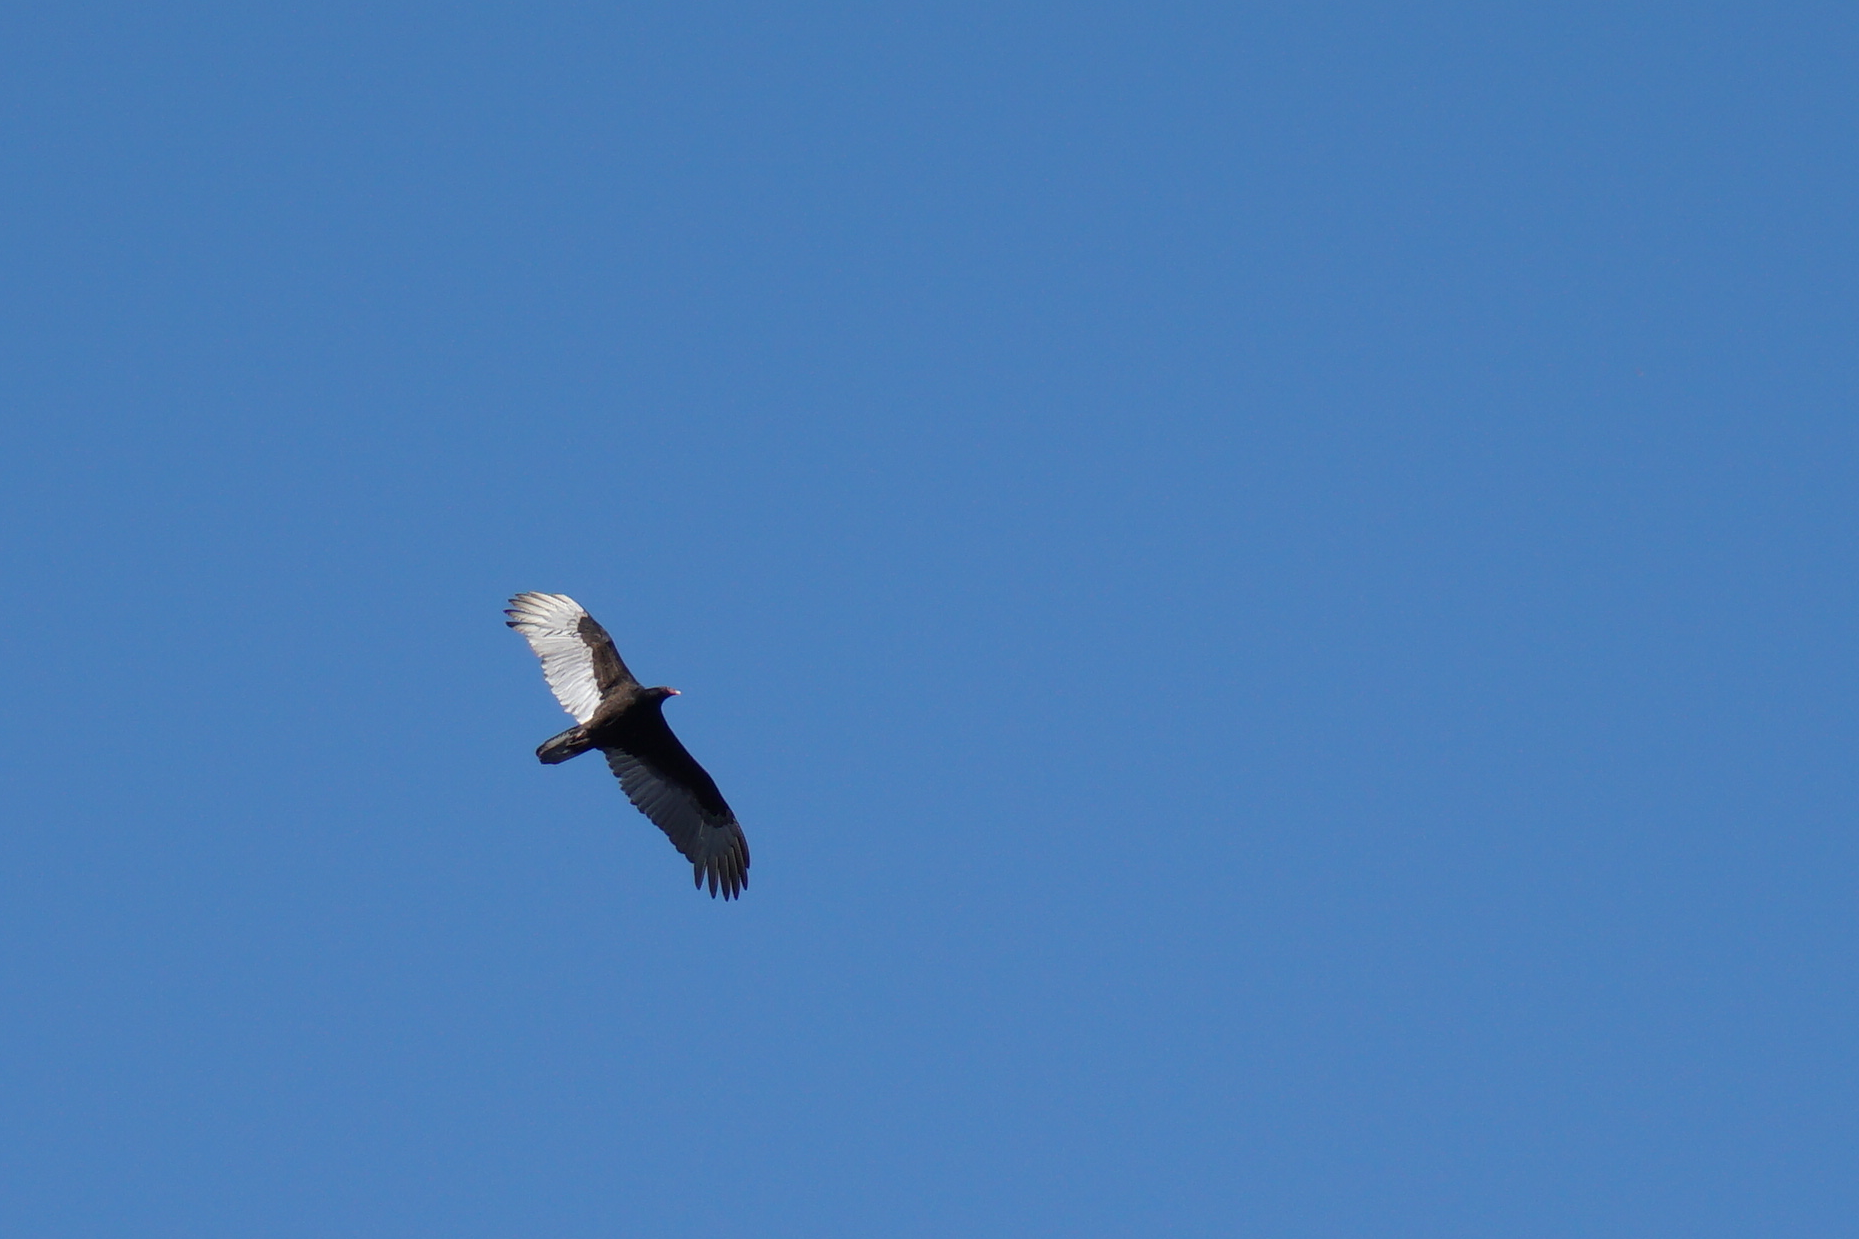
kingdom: Animalia
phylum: Chordata
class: Aves
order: Accipitriformes
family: Cathartidae
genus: Cathartes
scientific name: Cathartes aura
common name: Turkey vulture
